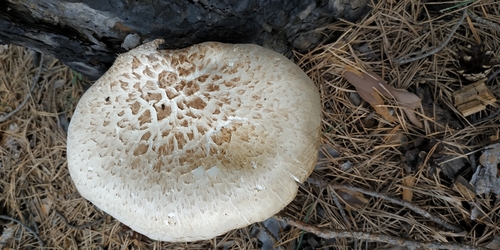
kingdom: Fungi
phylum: Basidiomycota
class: Agaricomycetes
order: Gloeophyllales
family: Gloeophyllaceae
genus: Neolentinus
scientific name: Neolentinus lepideus
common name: Scaly sawgill
